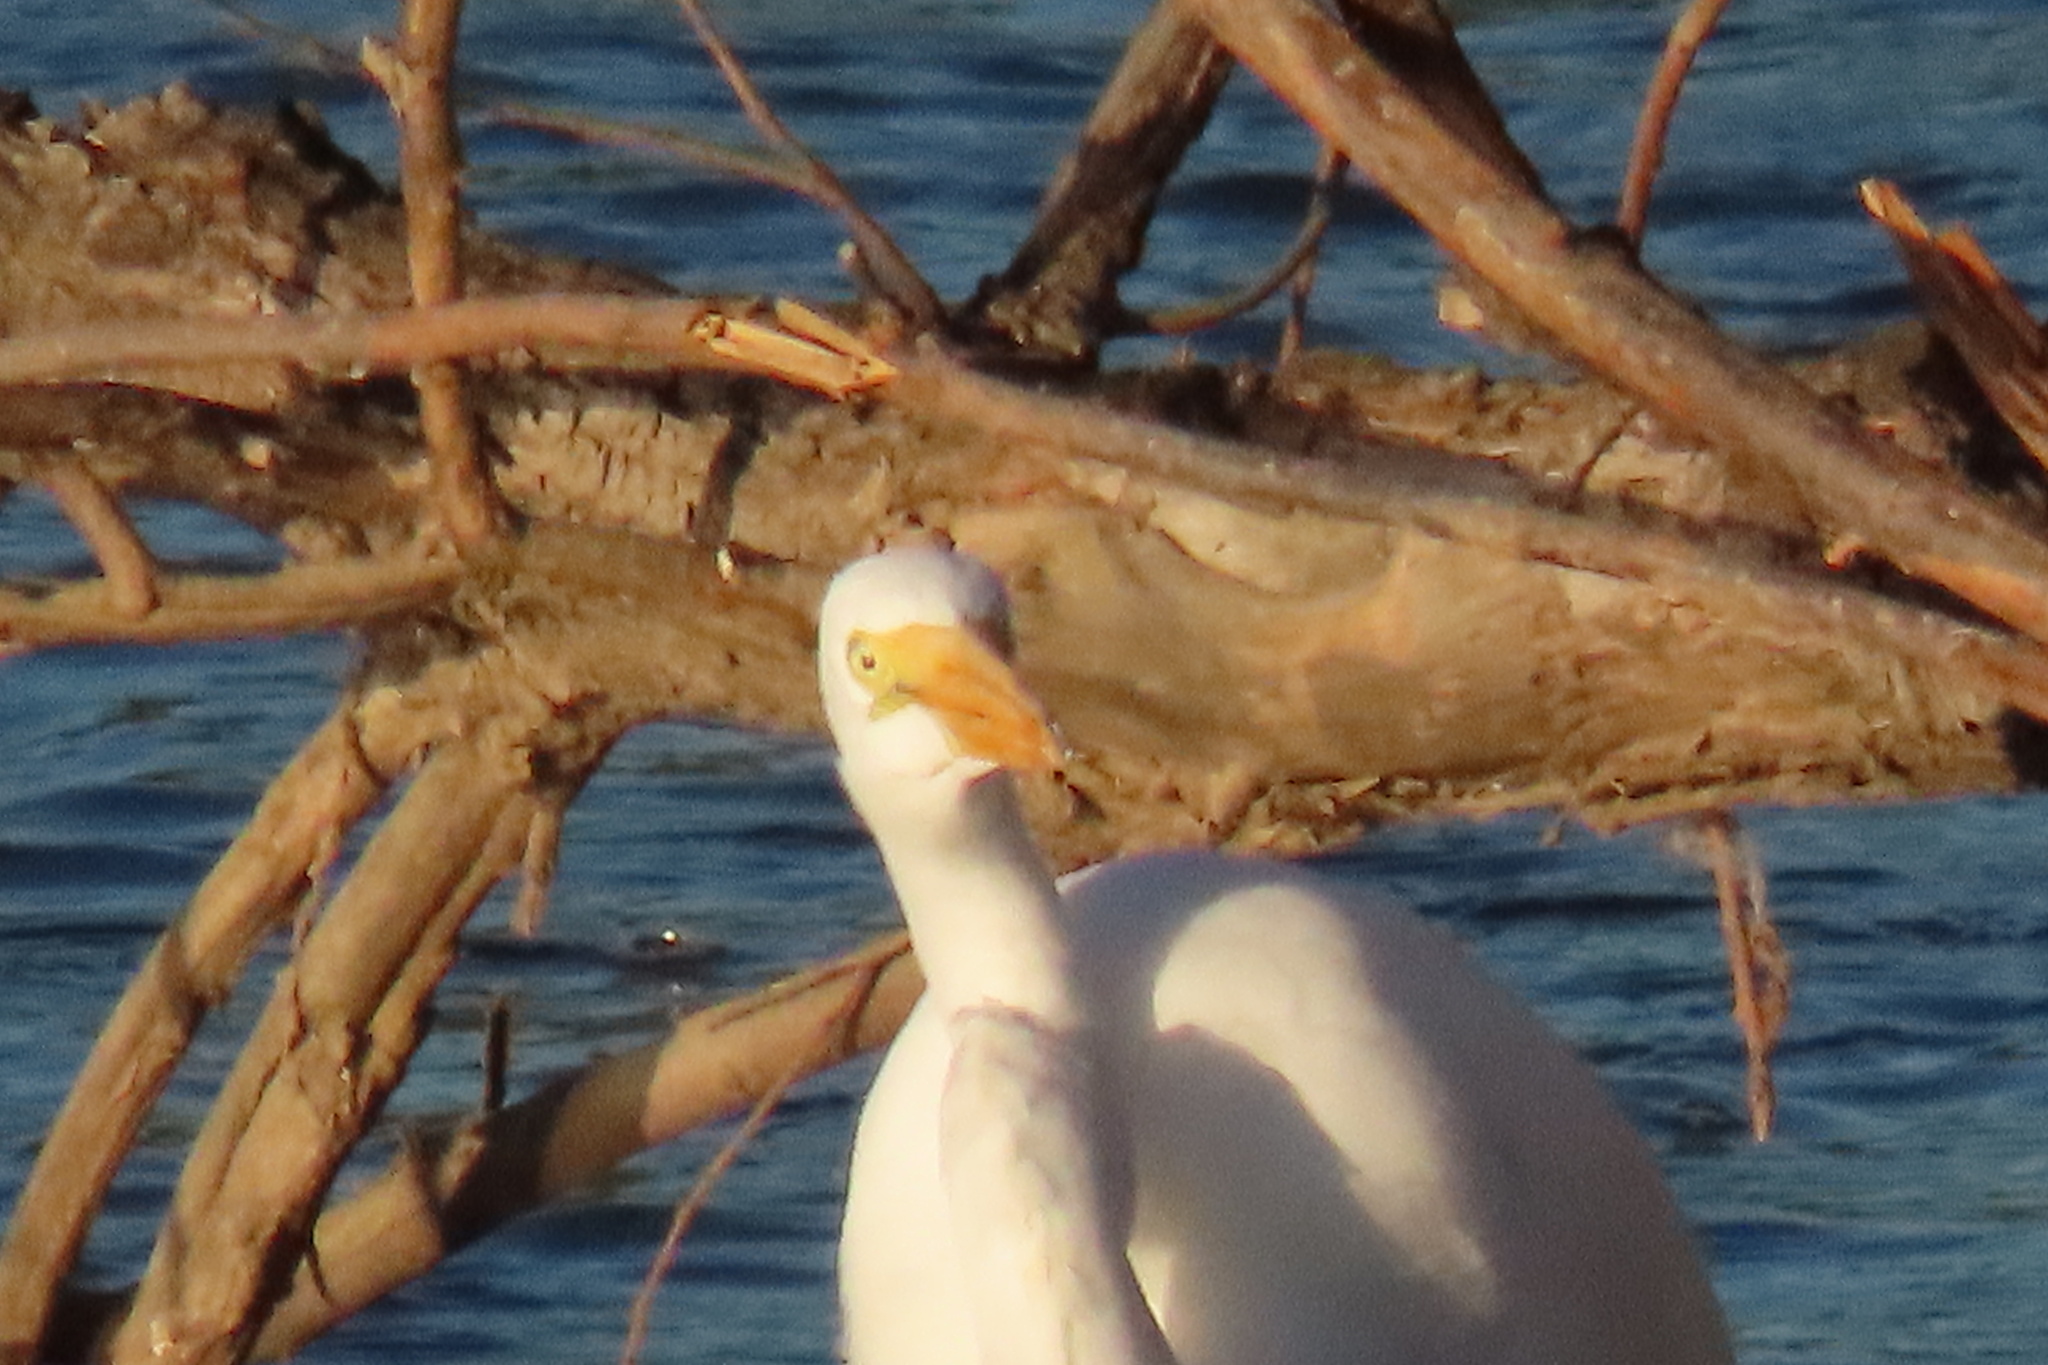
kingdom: Animalia
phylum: Chordata
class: Aves
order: Pelecaniformes
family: Ardeidae
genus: Ardea
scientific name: Ardea alba
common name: Great egret
